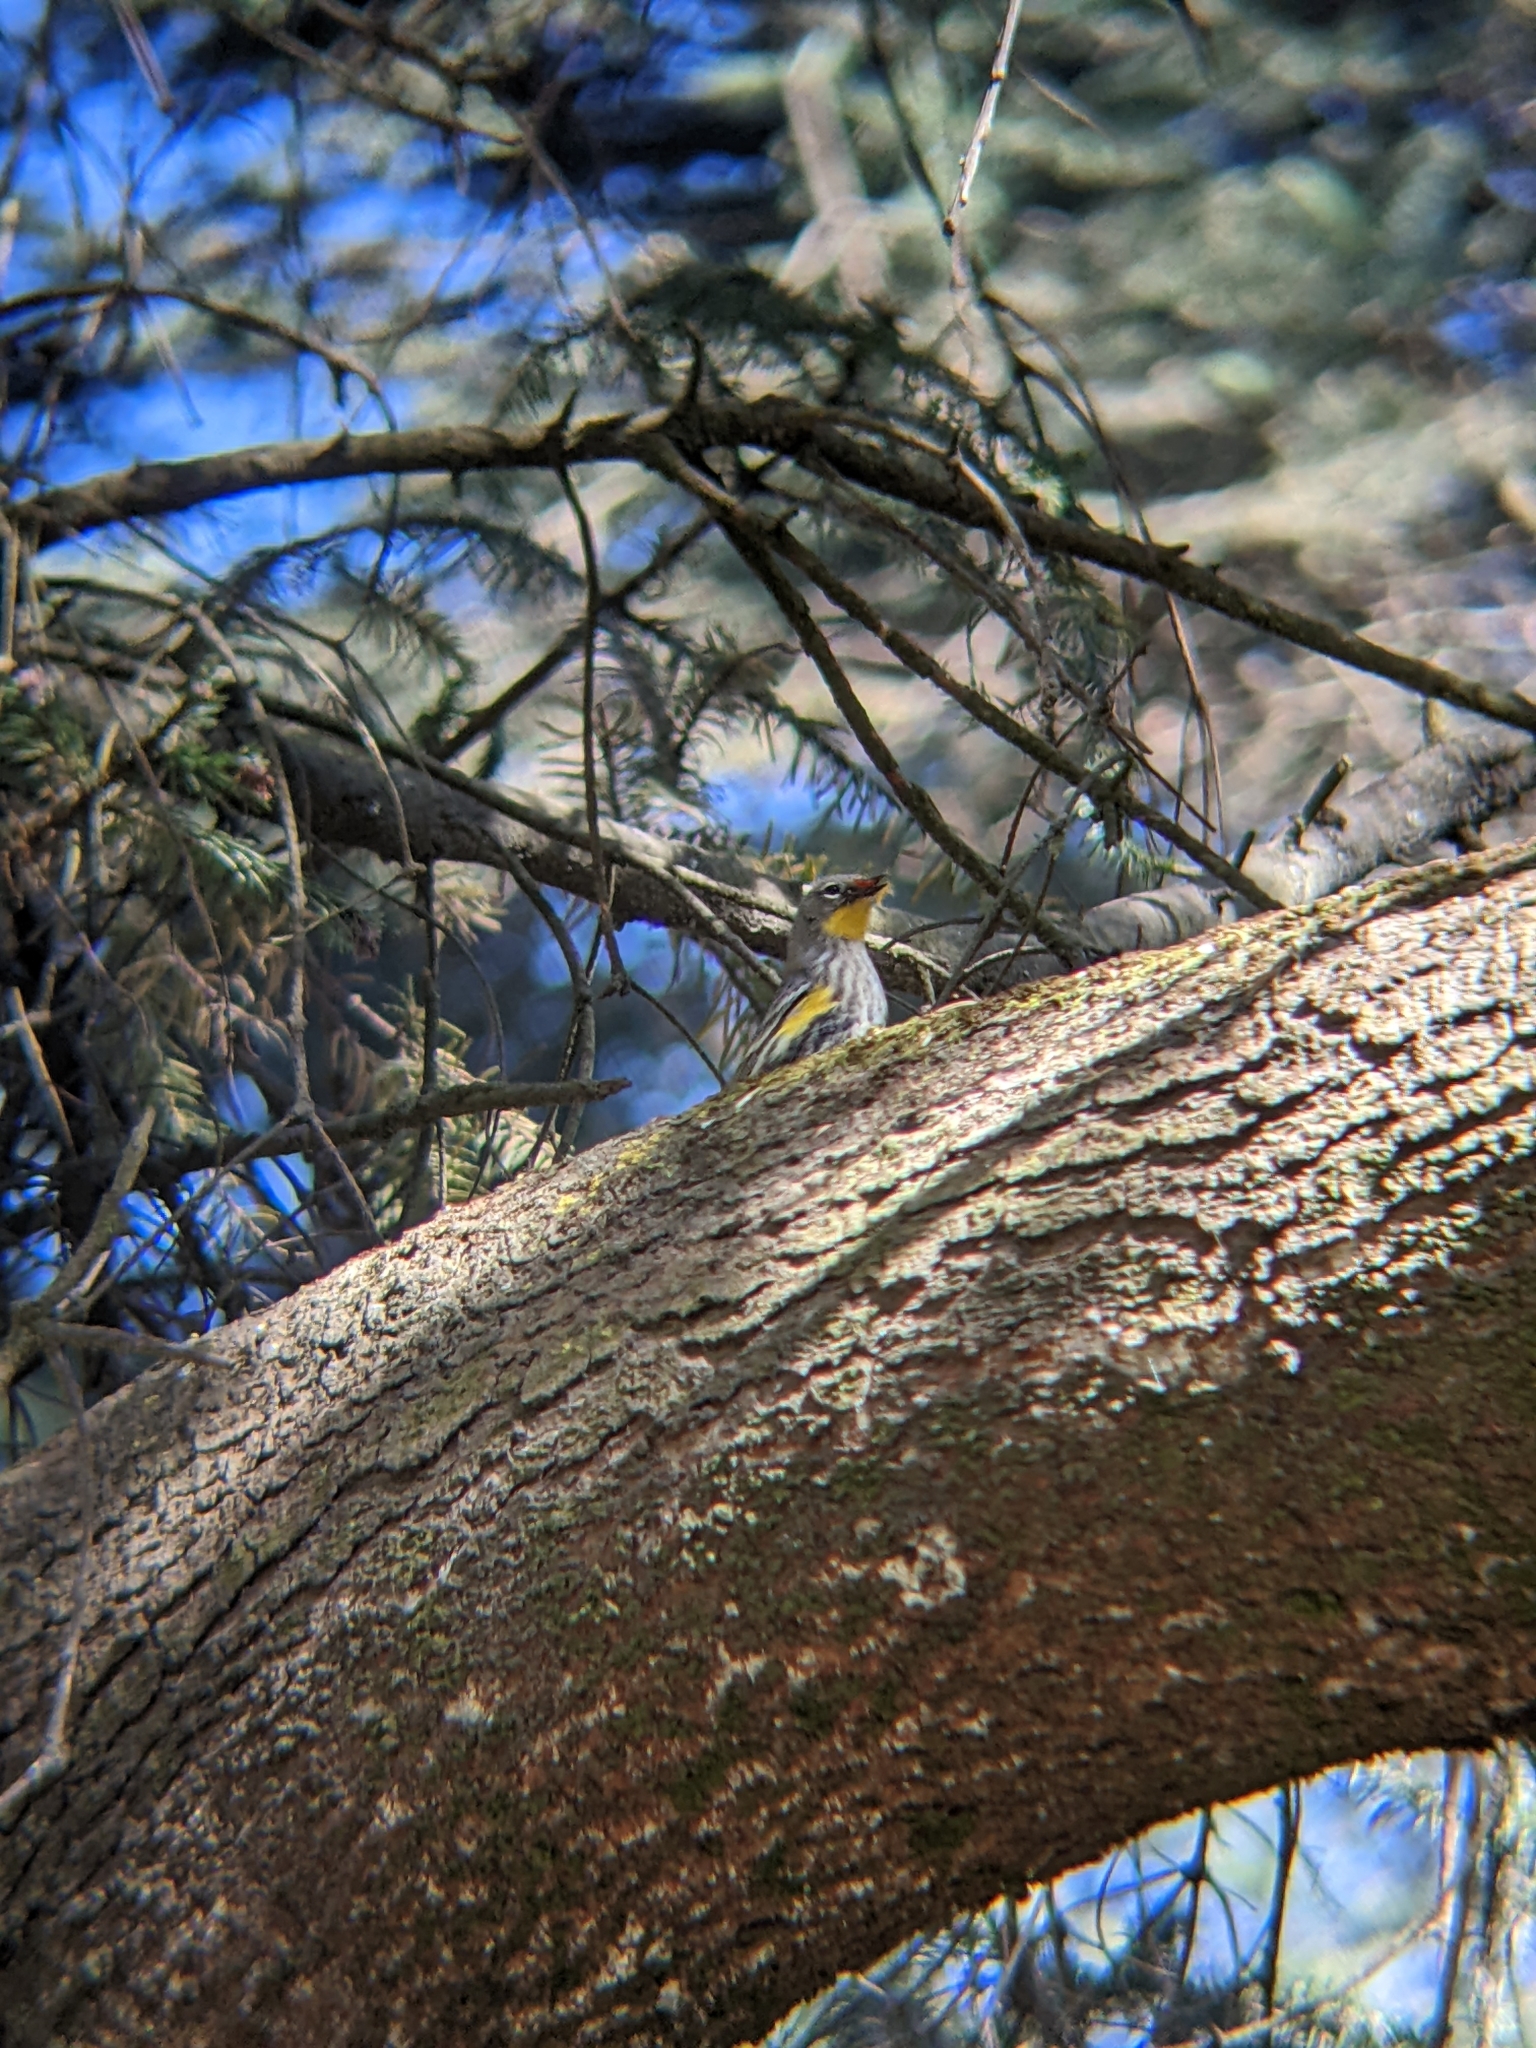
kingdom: Animalia
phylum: Chordata
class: Aves
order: Passeriformes
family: Parulidae
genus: Setophaga
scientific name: Setophaga auduboni
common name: Audubon's warbler
